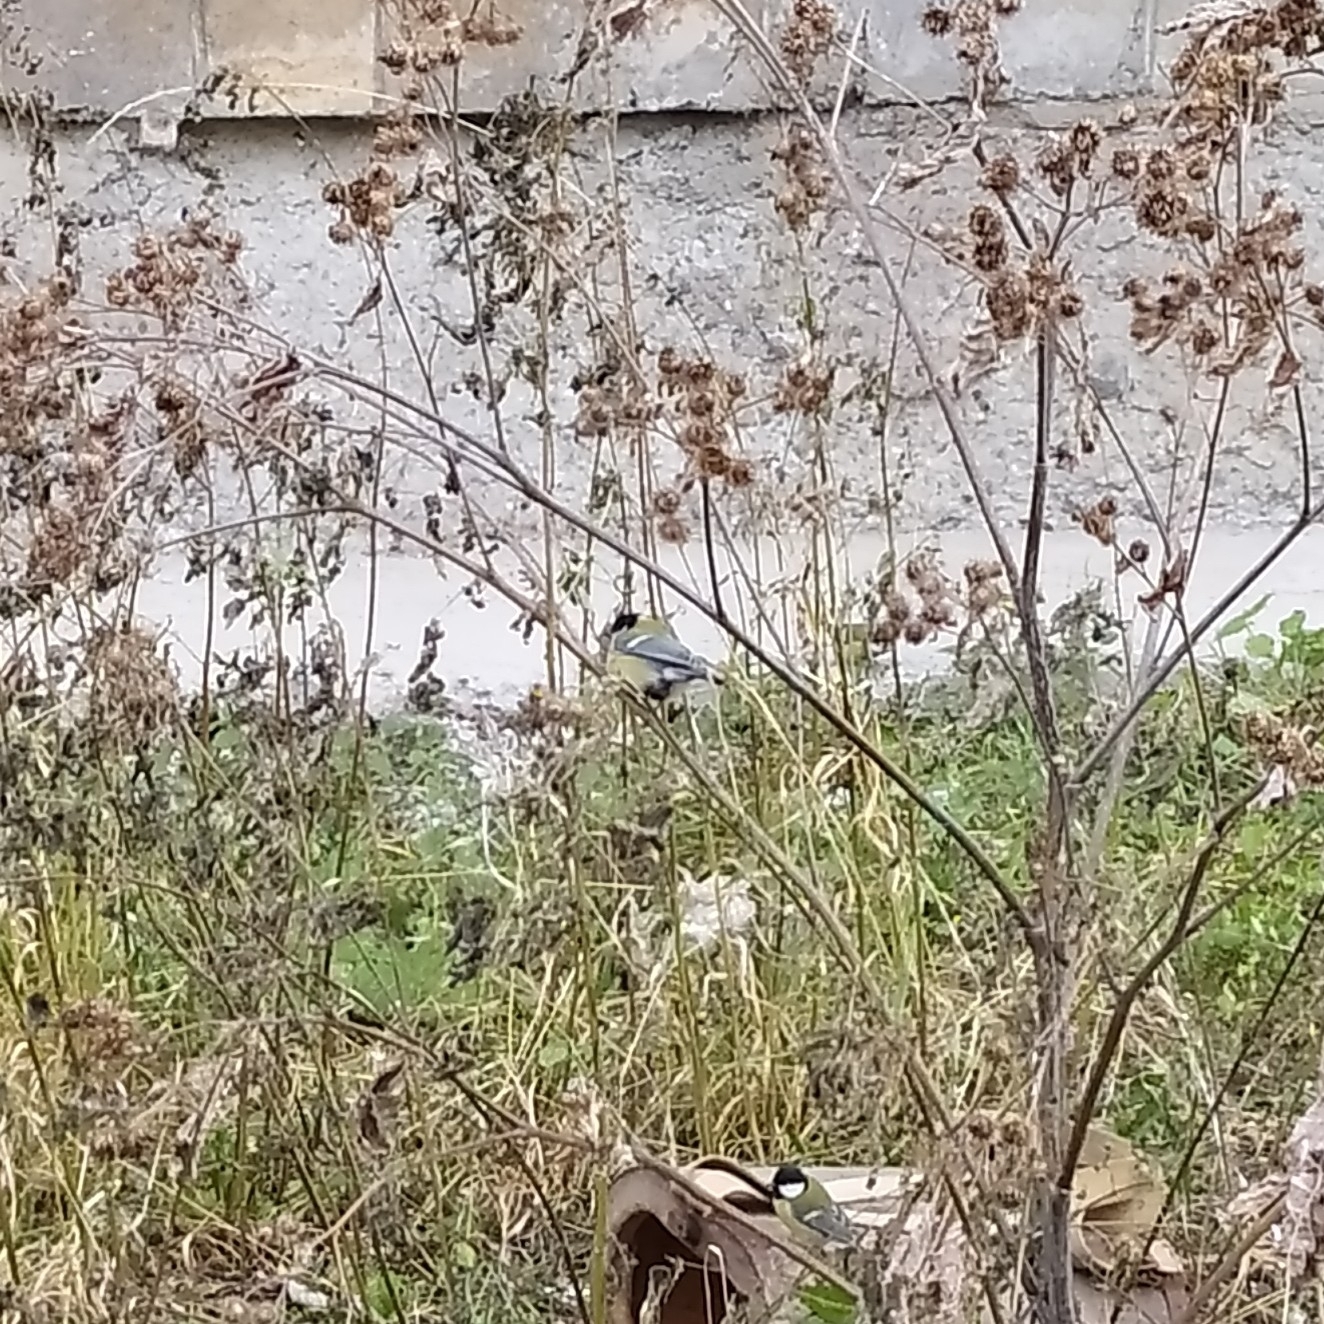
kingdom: Animalia
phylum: Chordata
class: Aves
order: Passeriformes
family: Paridae
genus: Parus
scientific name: Parus major
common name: Great tit
